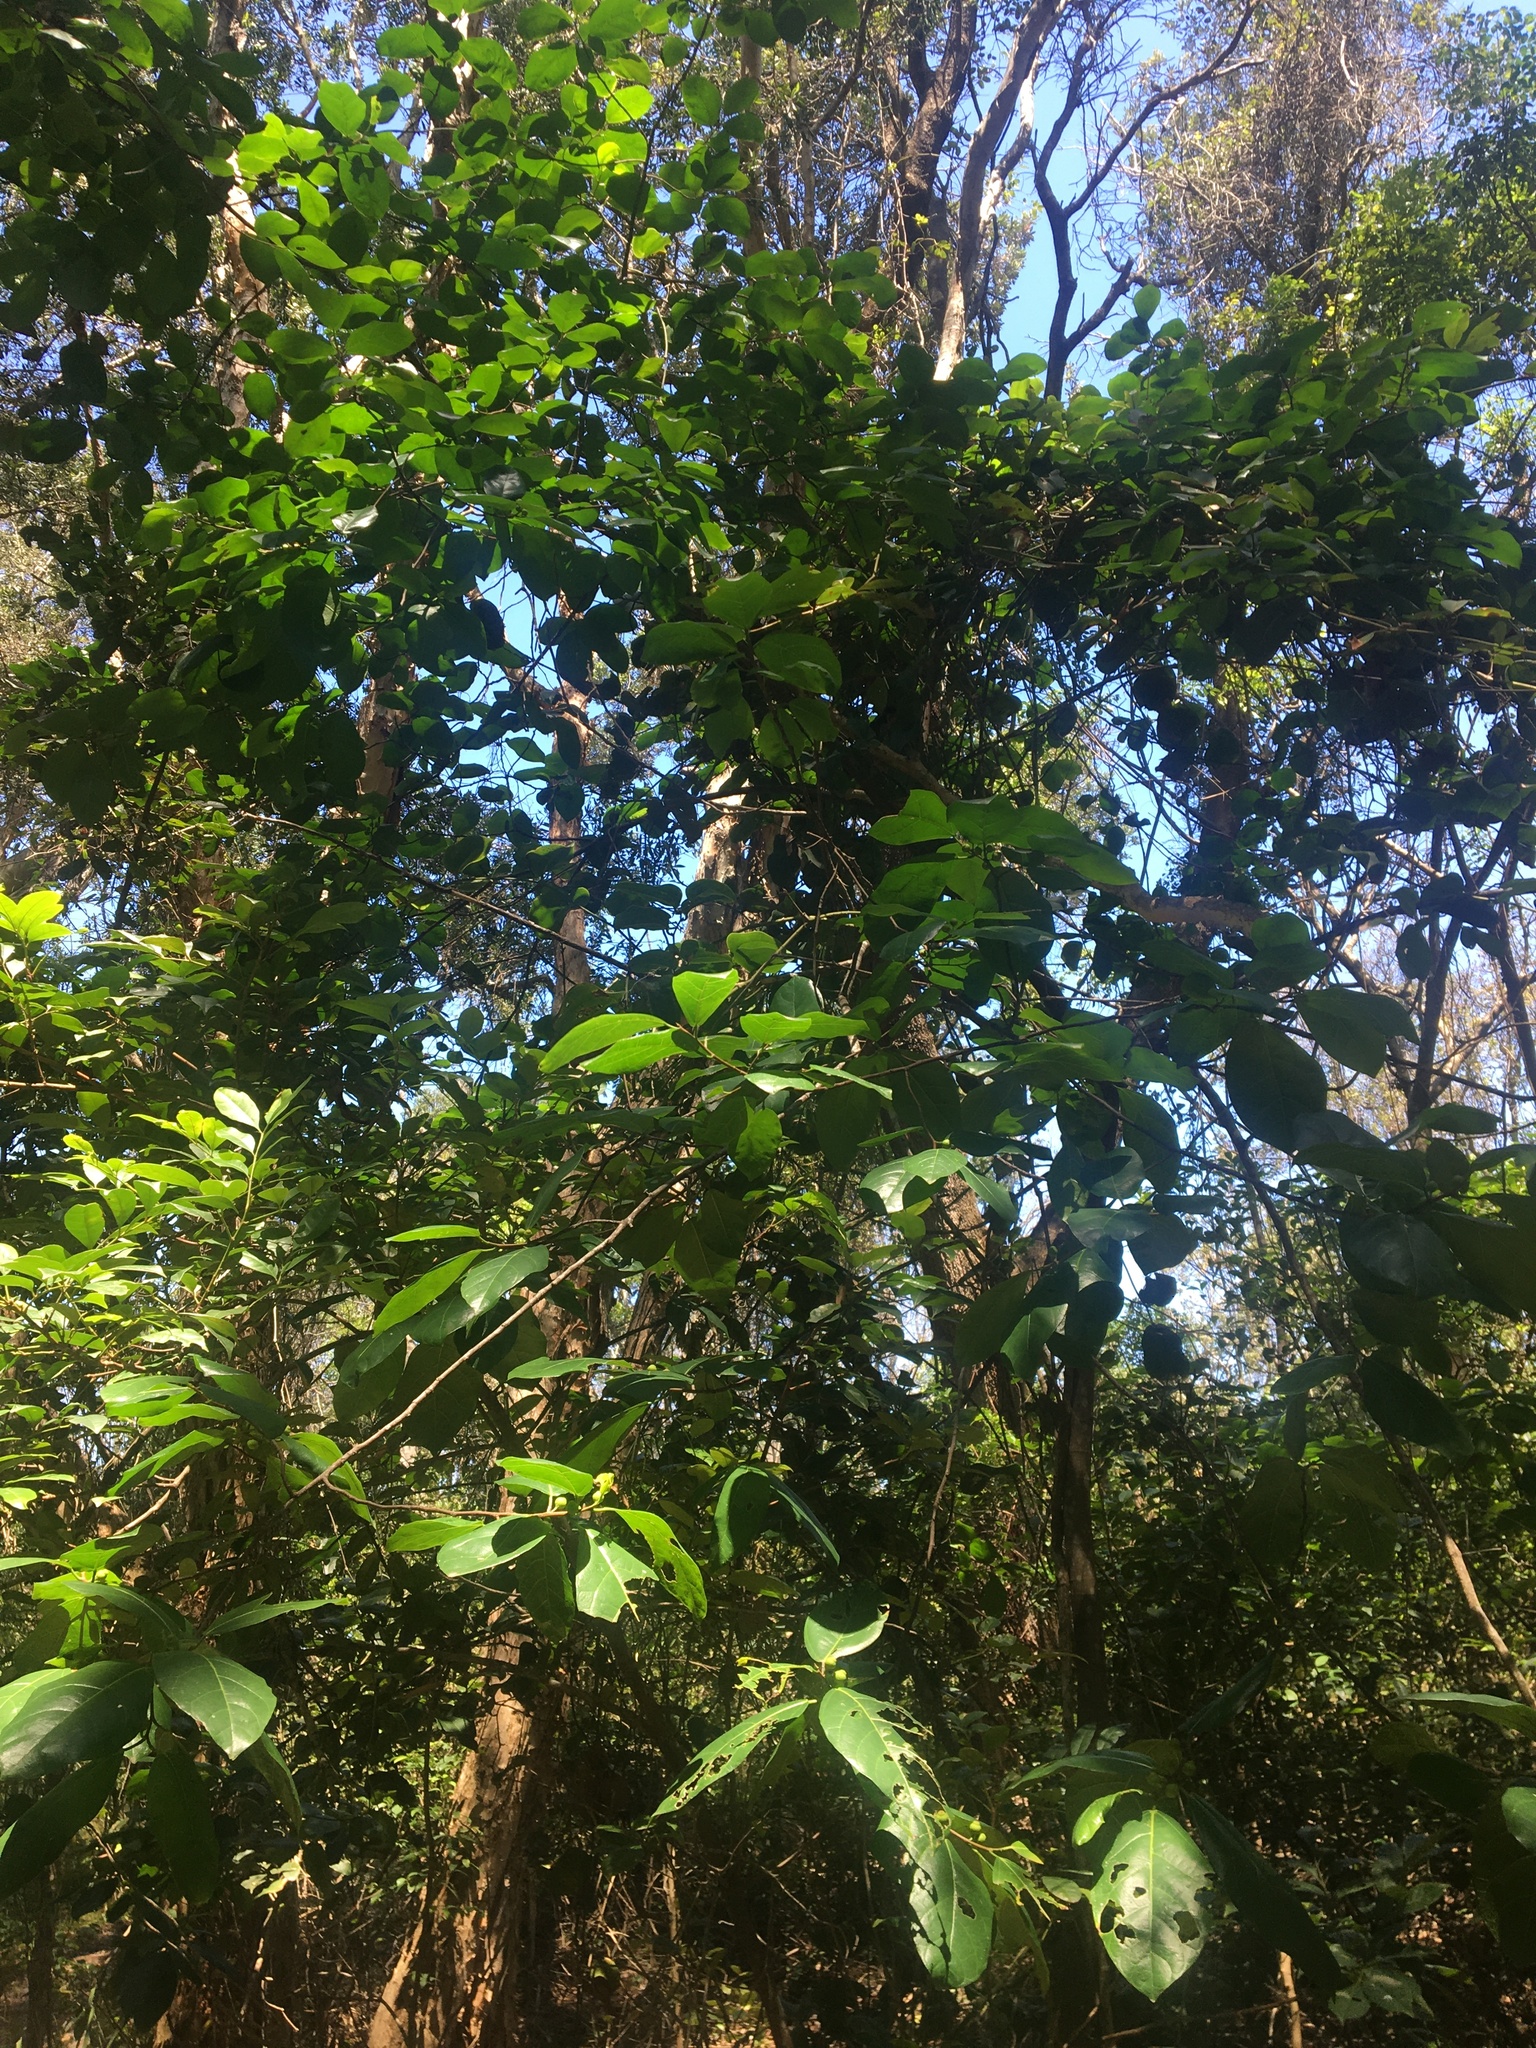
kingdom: Plantae
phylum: Tracheophyta
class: Magnoliopsida
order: Rosales
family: Moraceae
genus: Ficus
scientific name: Ficus fraseri
